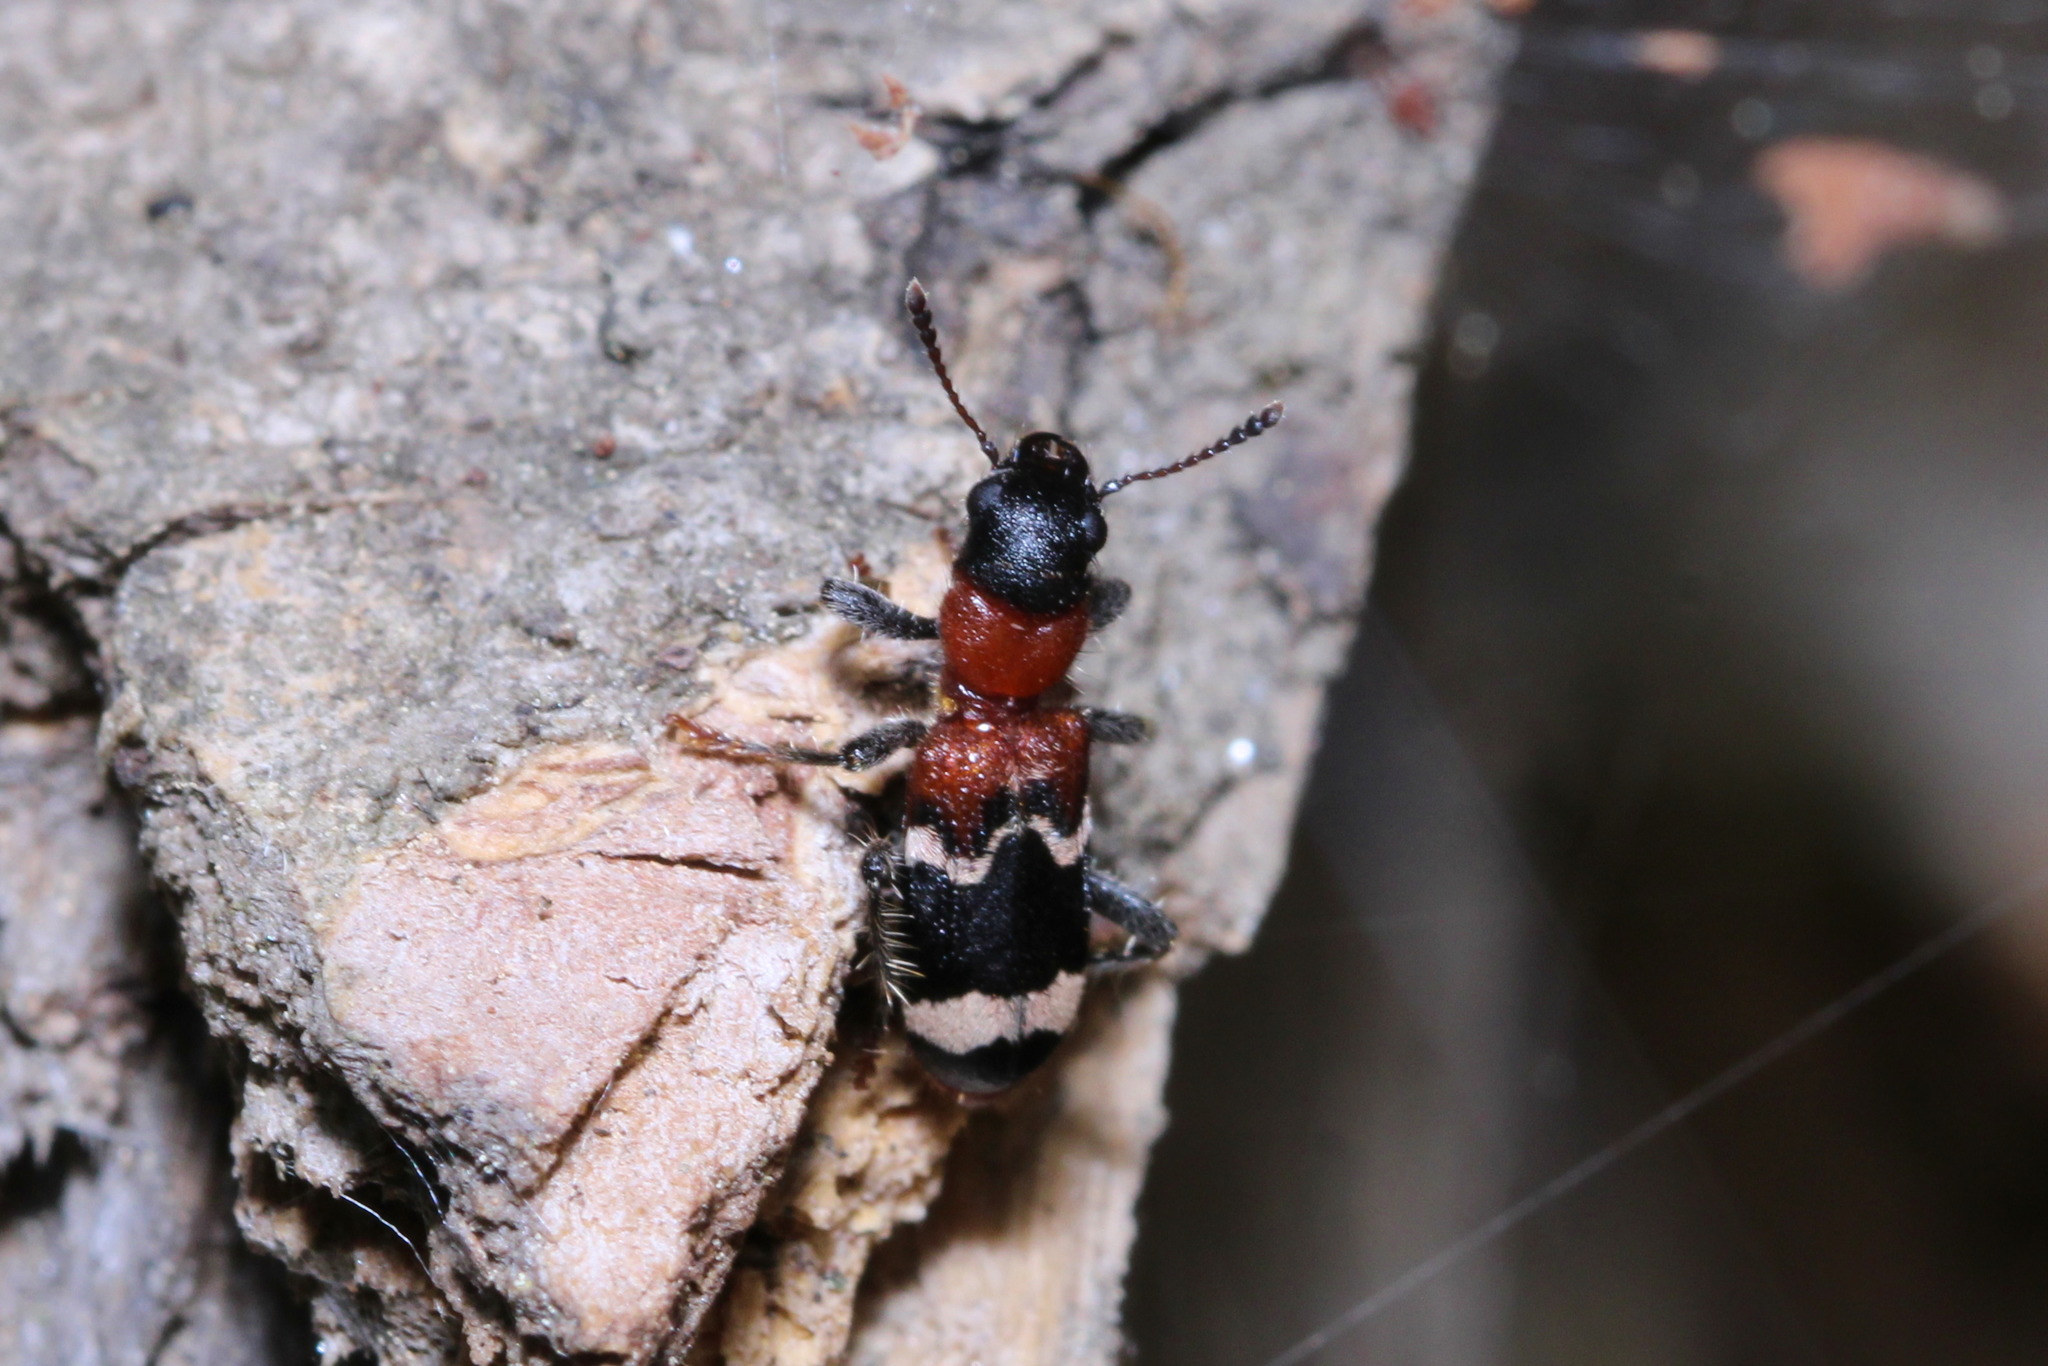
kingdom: Animalia
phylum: Arthropoda
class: Insecta
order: Coleoptera
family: Cleridae
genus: Thanasimus
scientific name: Thanasimus formicarius
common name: Ant beetle
